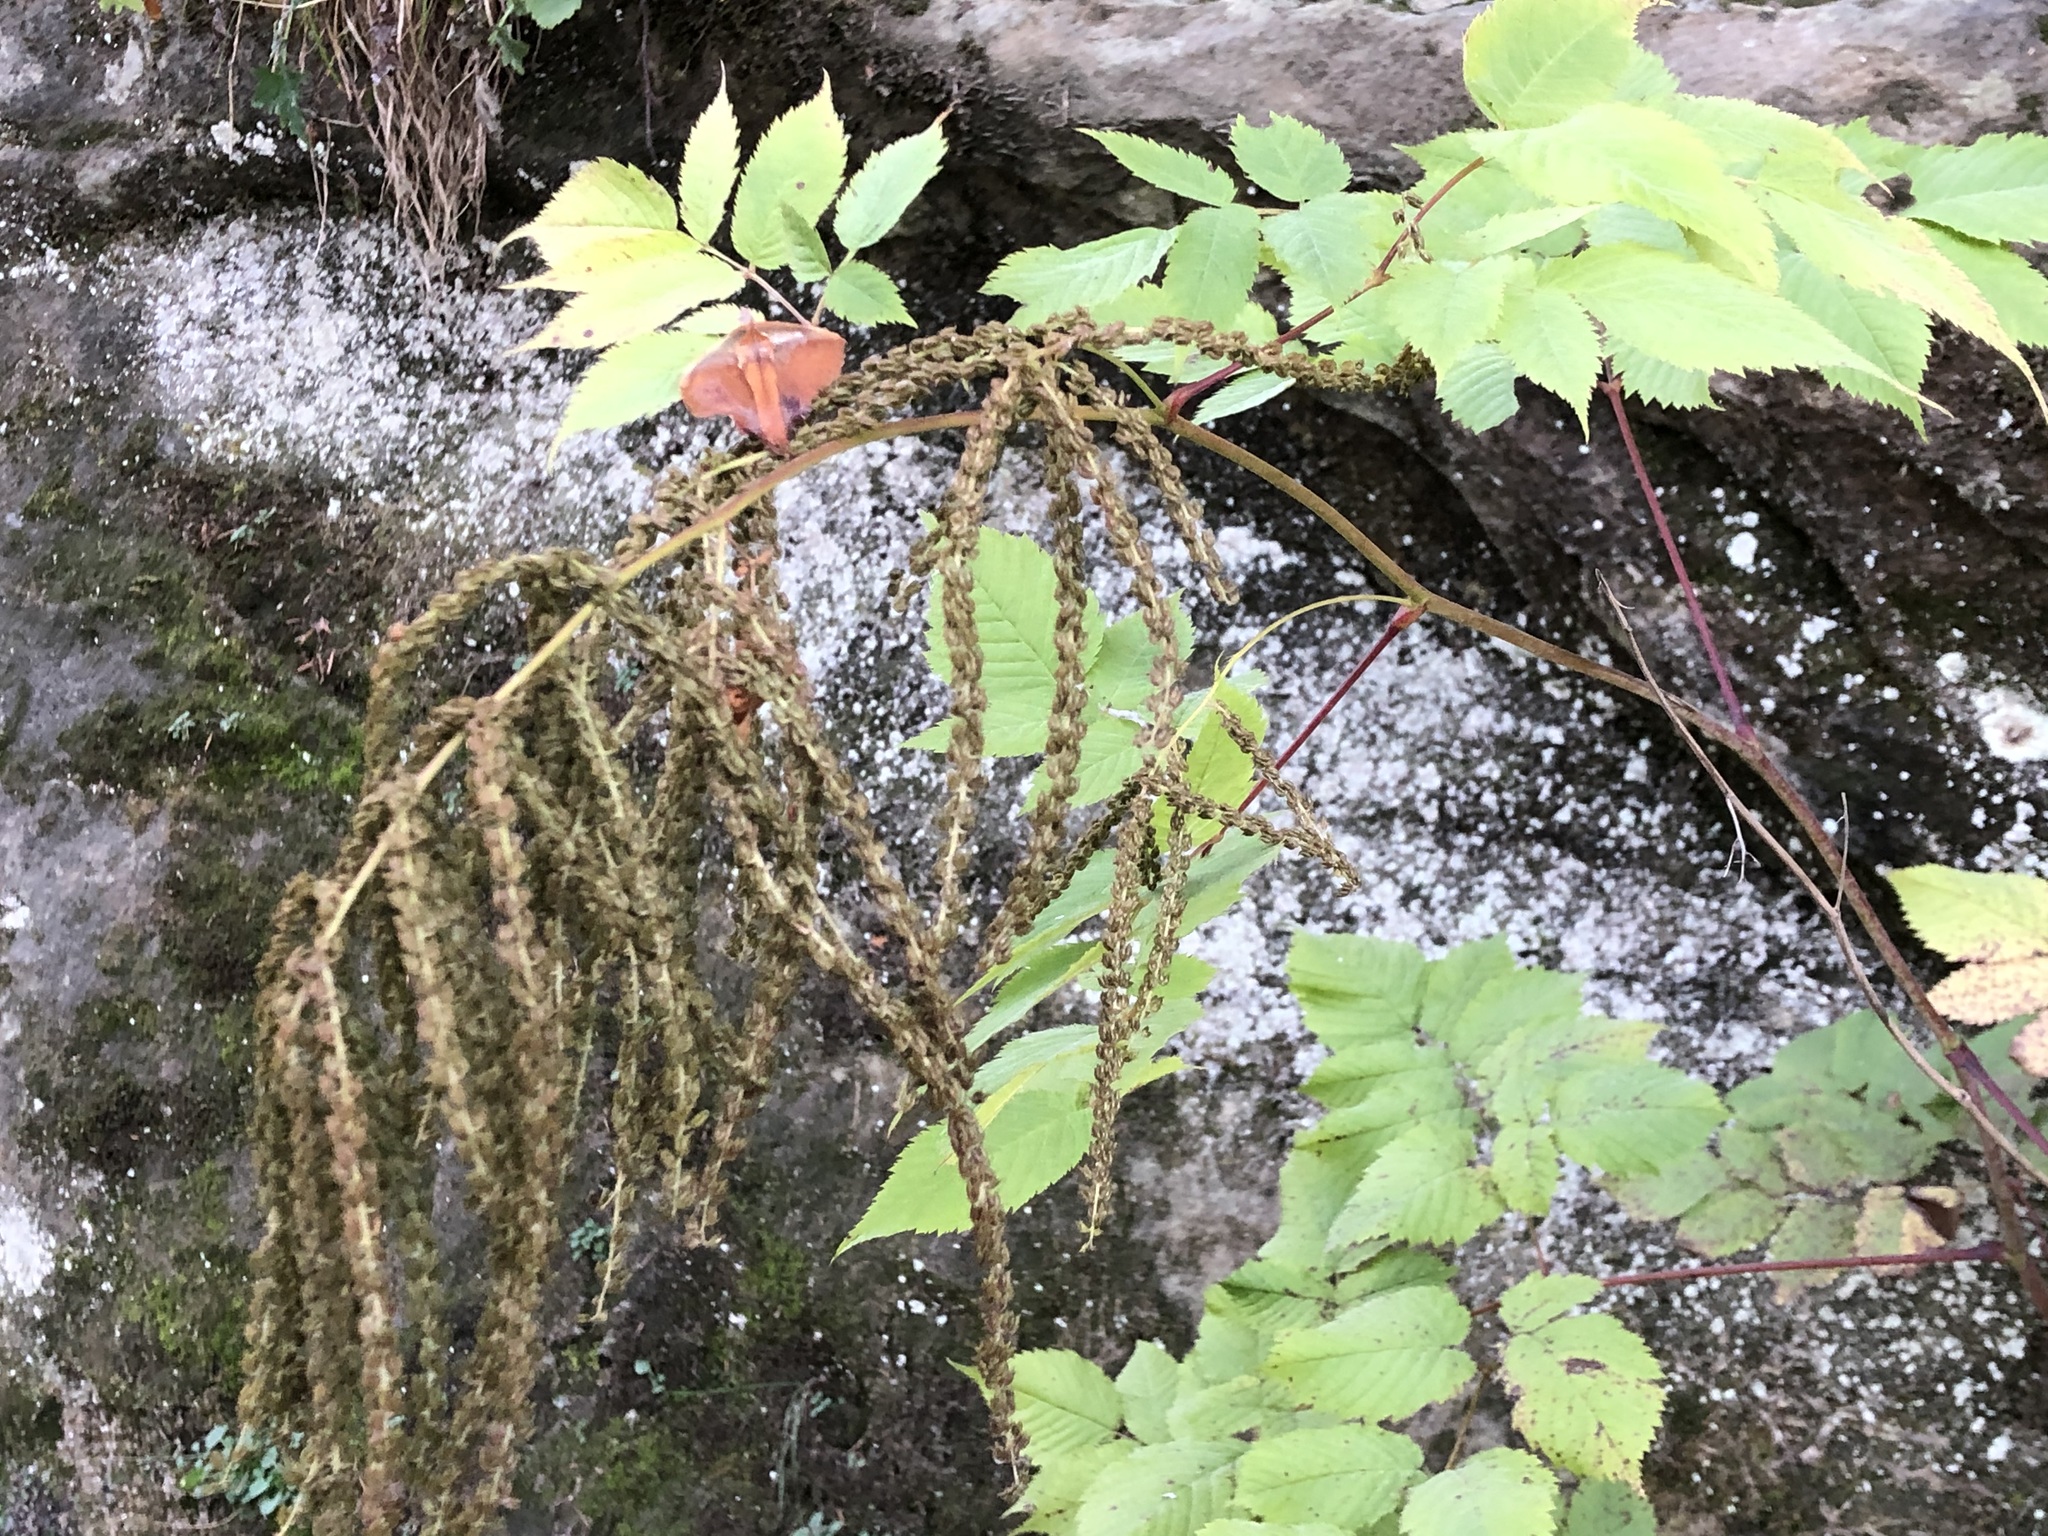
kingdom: Plantae
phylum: Tracheophyta
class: Magnoliopsida
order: Rosales
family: Rosaceae
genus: Aruncus
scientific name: Aruncus dioicus
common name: Buck's-beard
